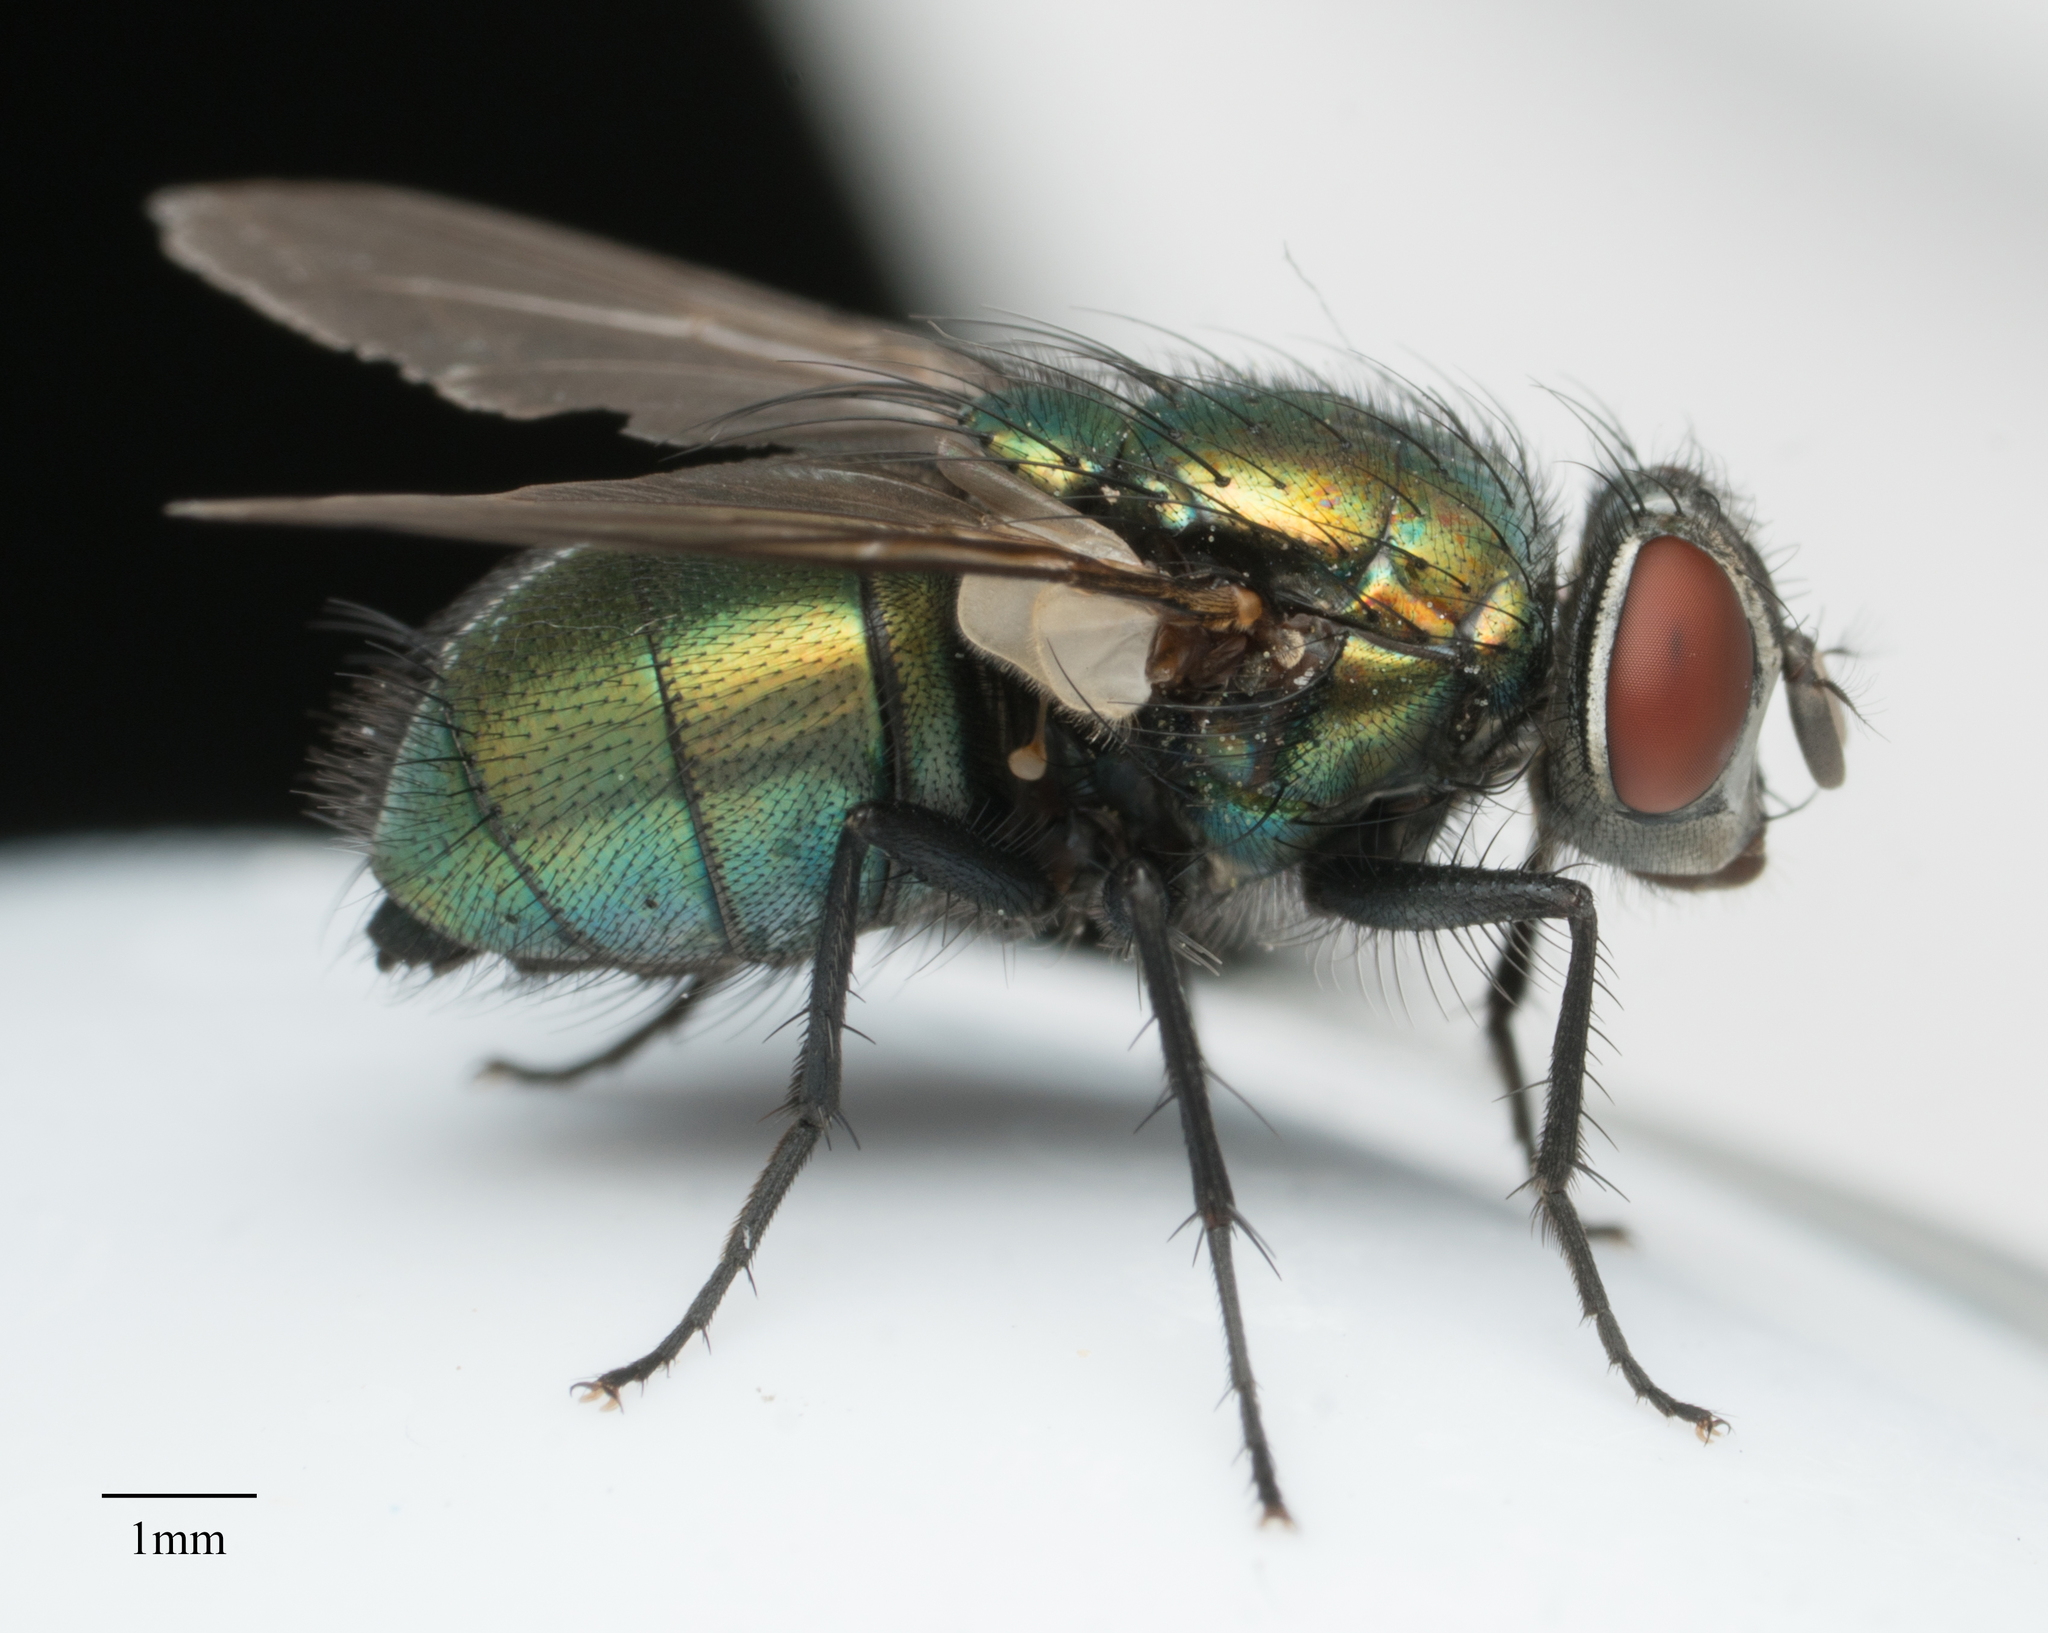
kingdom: Animalia
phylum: Arthropoda
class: Insecta
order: Diptera
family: Calliphoridae
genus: Lucilia
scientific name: Lucilia sericata
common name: Blow fly
